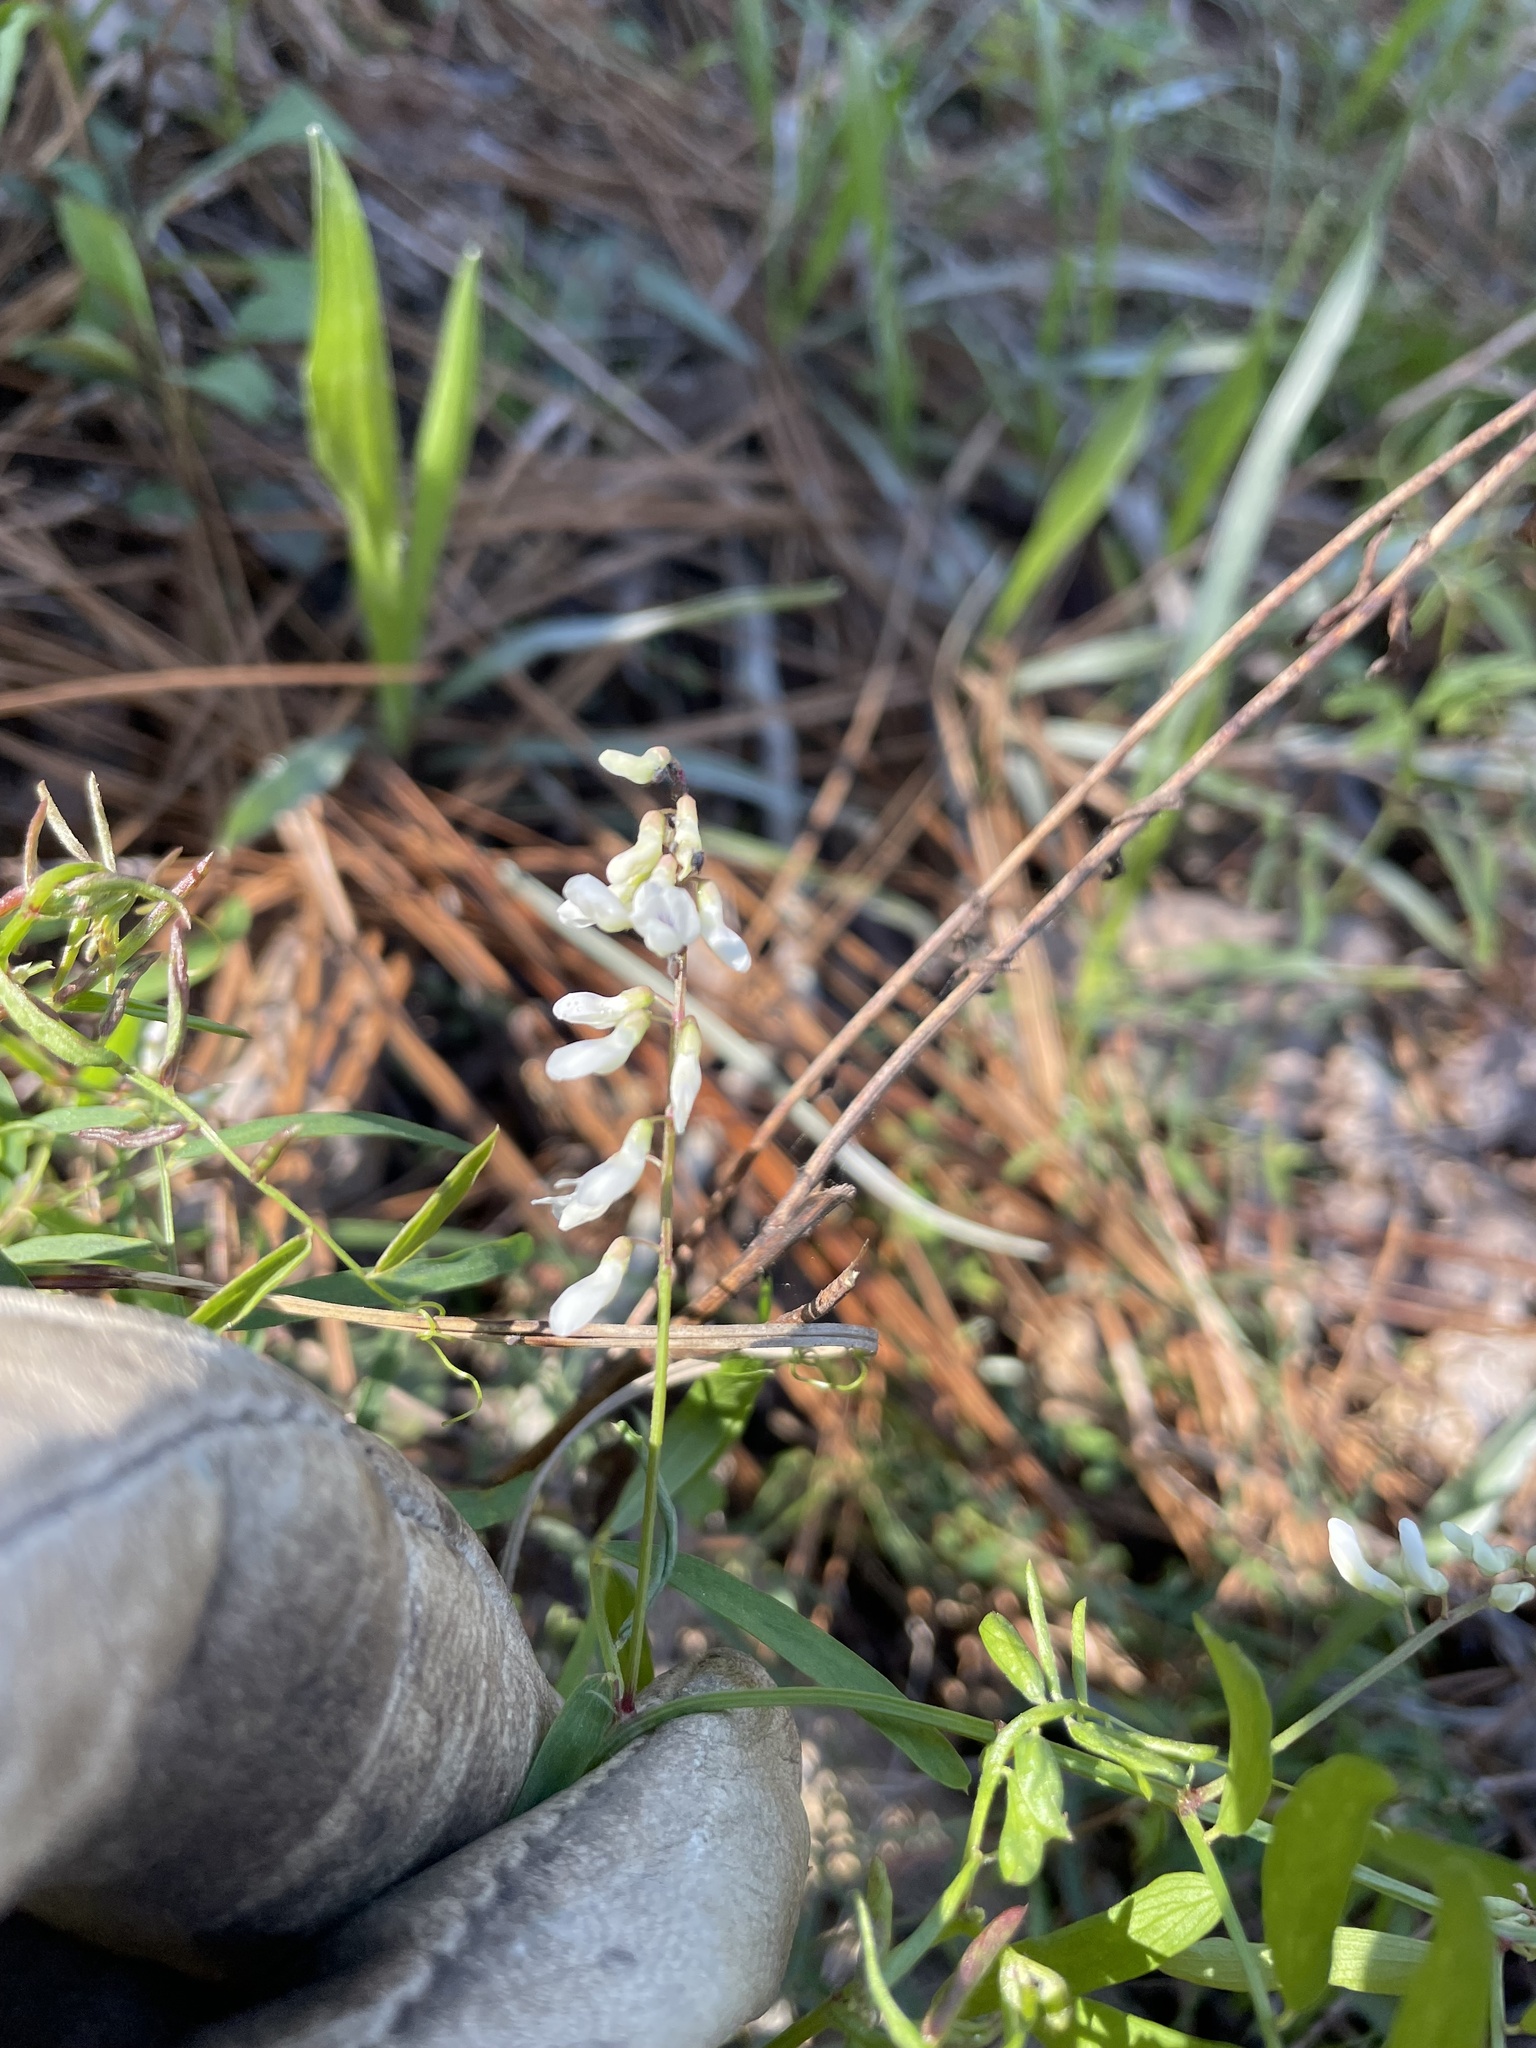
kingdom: Plantae
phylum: Tracheophyta
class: Magnoliopsida
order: Fabales
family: Fabaceae
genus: Vicia
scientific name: Vicia caroliniana
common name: Carolina vetch
